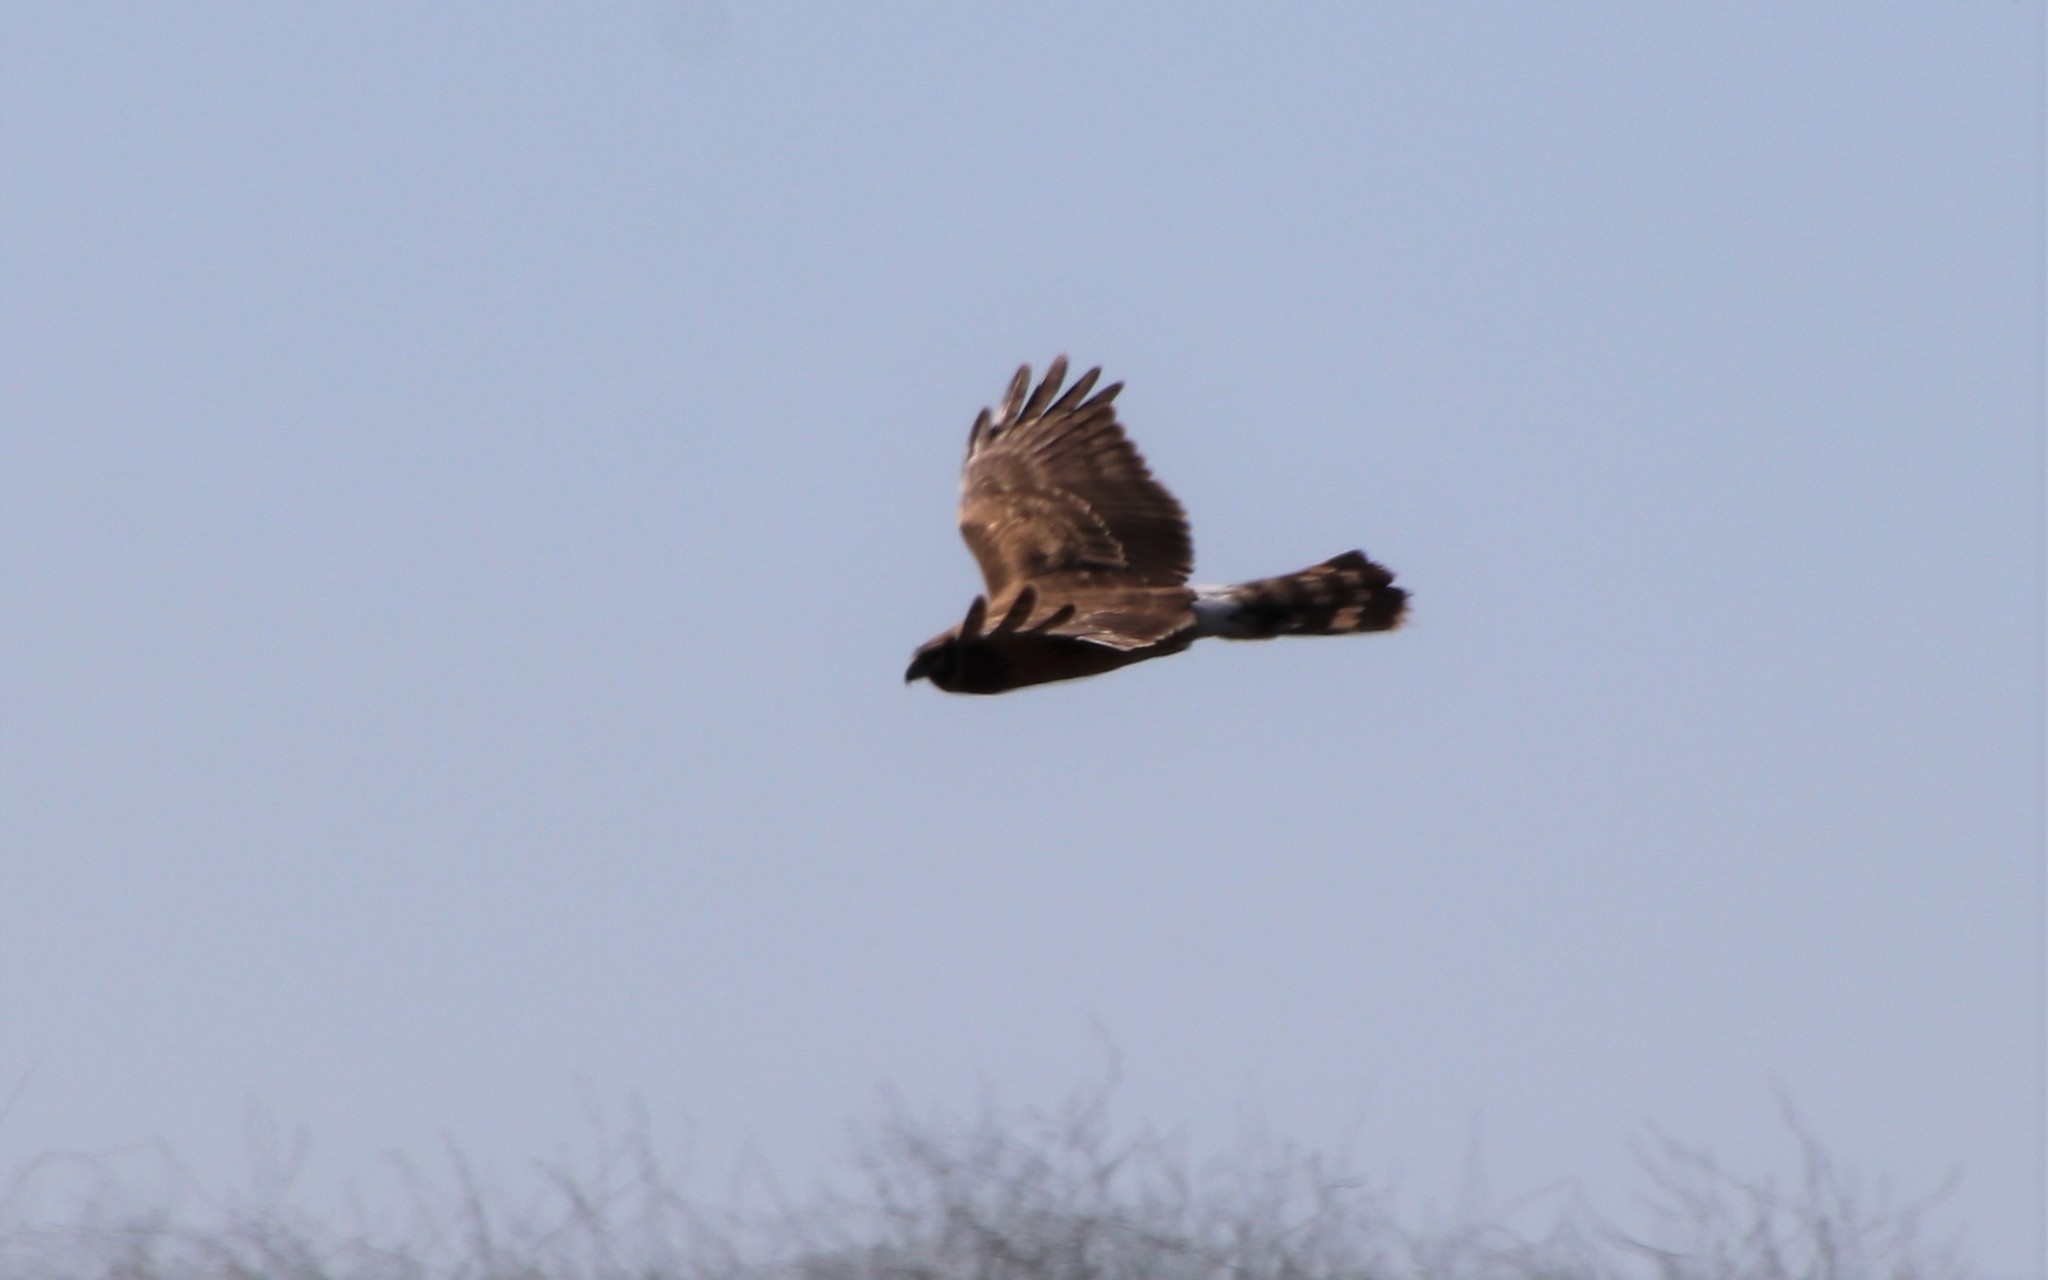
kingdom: Animalia
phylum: Chordata
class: Aves
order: Accipitriformes
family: Accipitridae
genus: Circus
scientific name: Circus cyaneus
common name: Hen harrier
